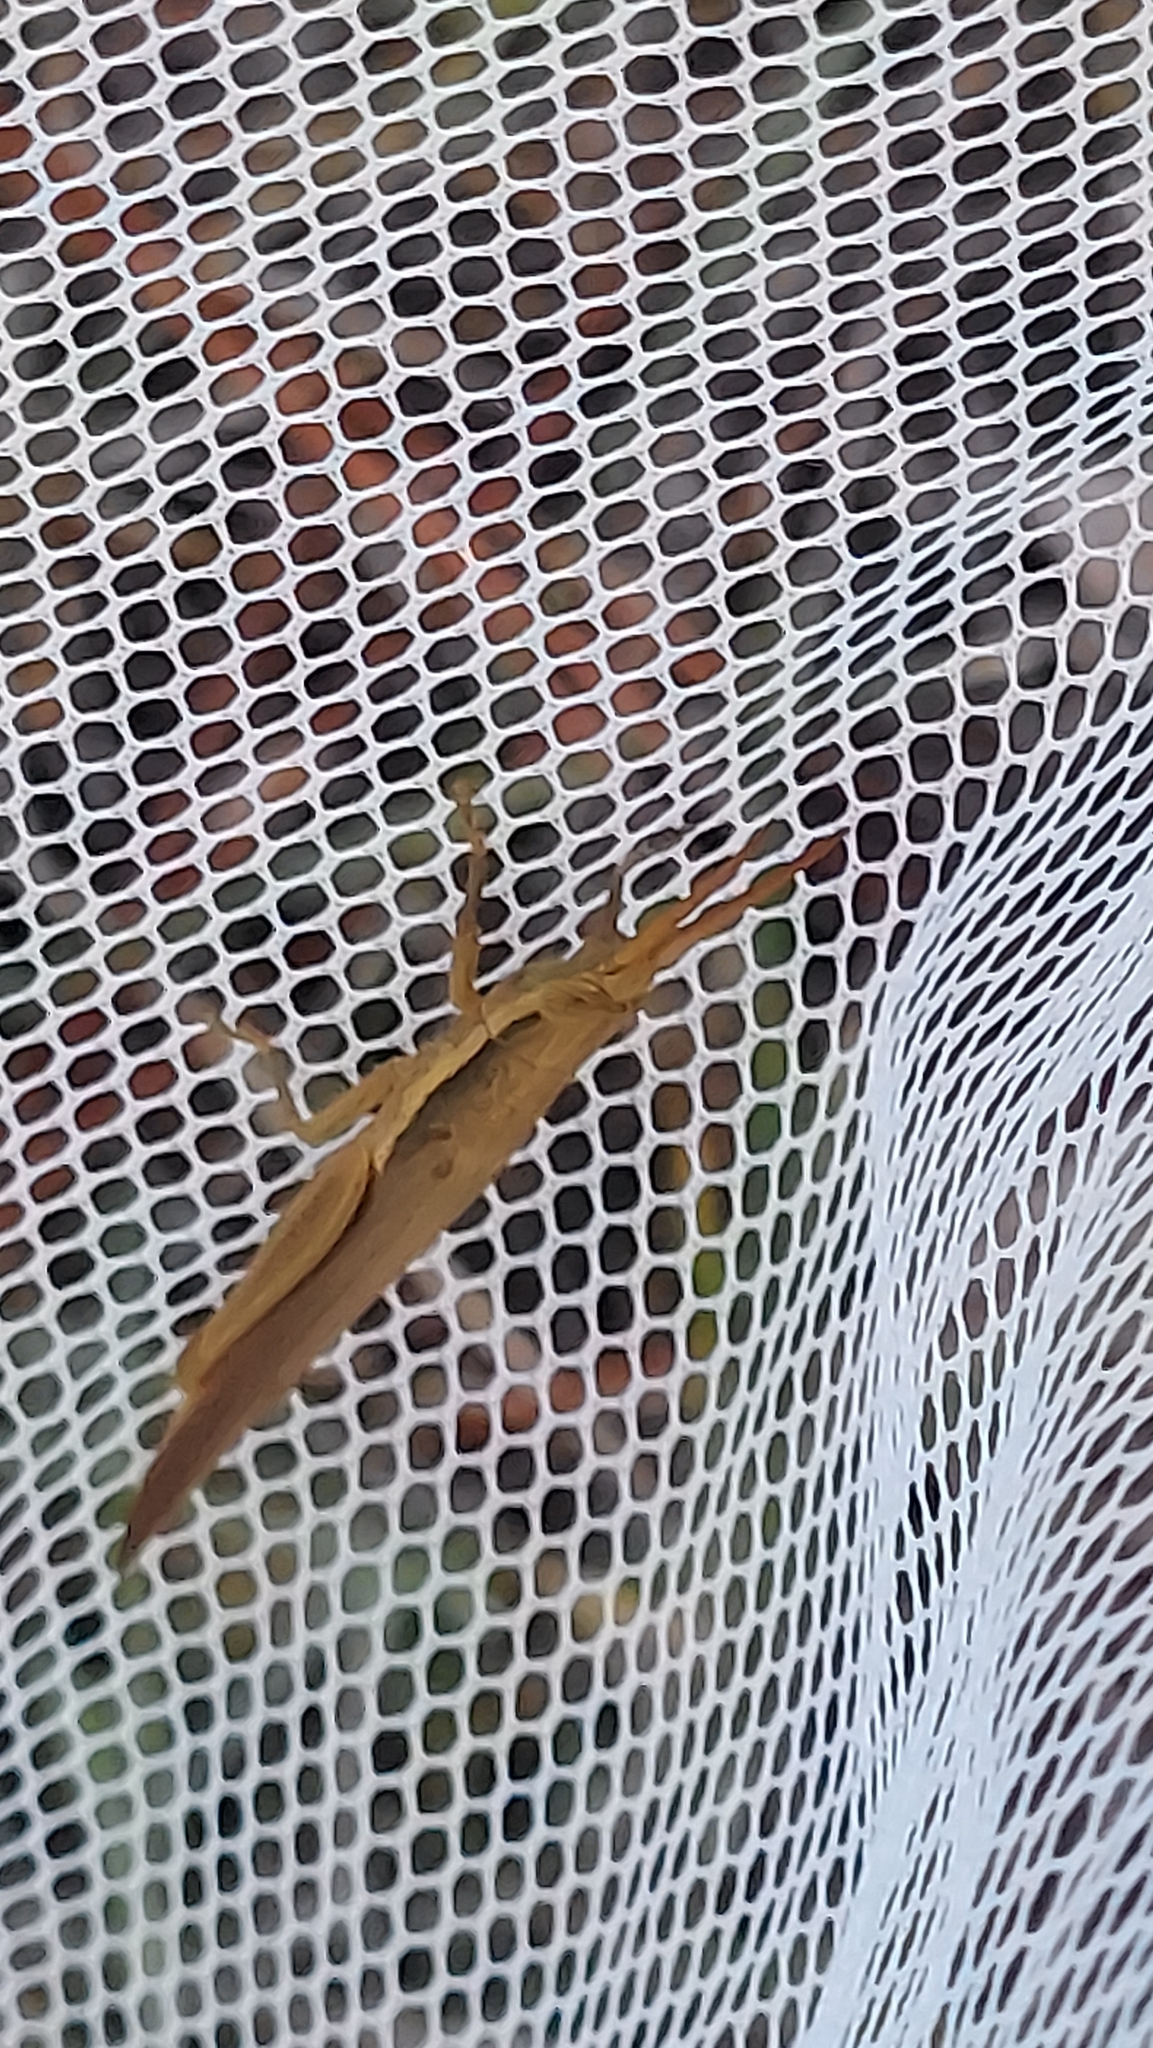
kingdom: Animalia
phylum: Arthropoda
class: Insecta
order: Orthoptera
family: Acrididae
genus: Leptysma
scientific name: Leptysma marginicollis
